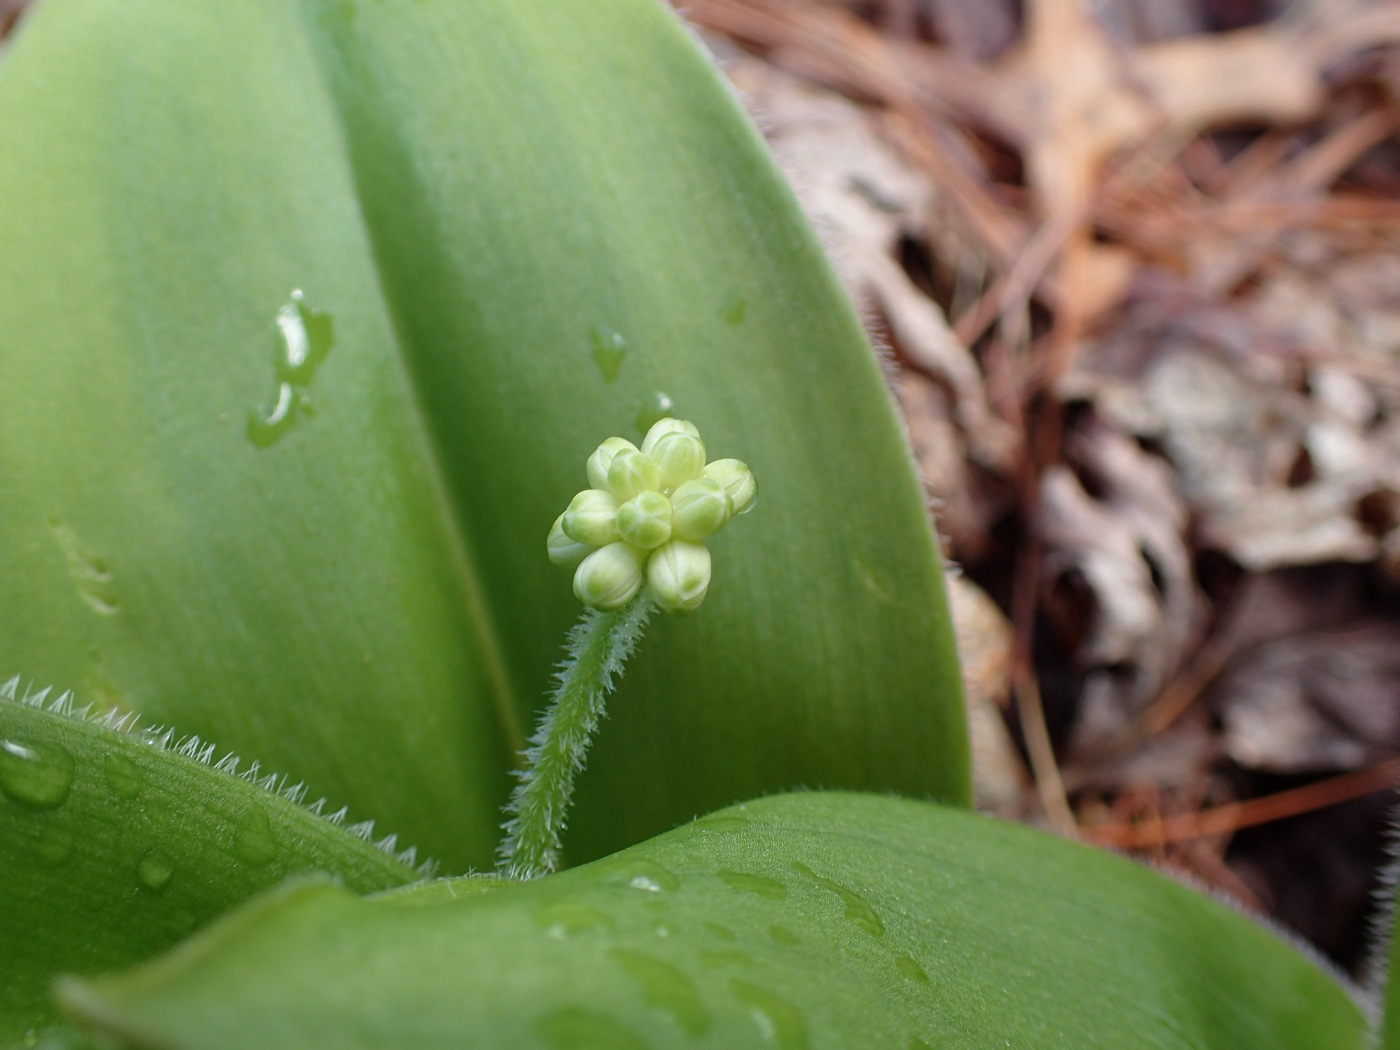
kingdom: Plantae
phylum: Tracheophyta
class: Liliopsida
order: Liliales
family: Liliaceae
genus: Clintonia
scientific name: Clintonia umbellulata
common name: Speckle wood-lily
